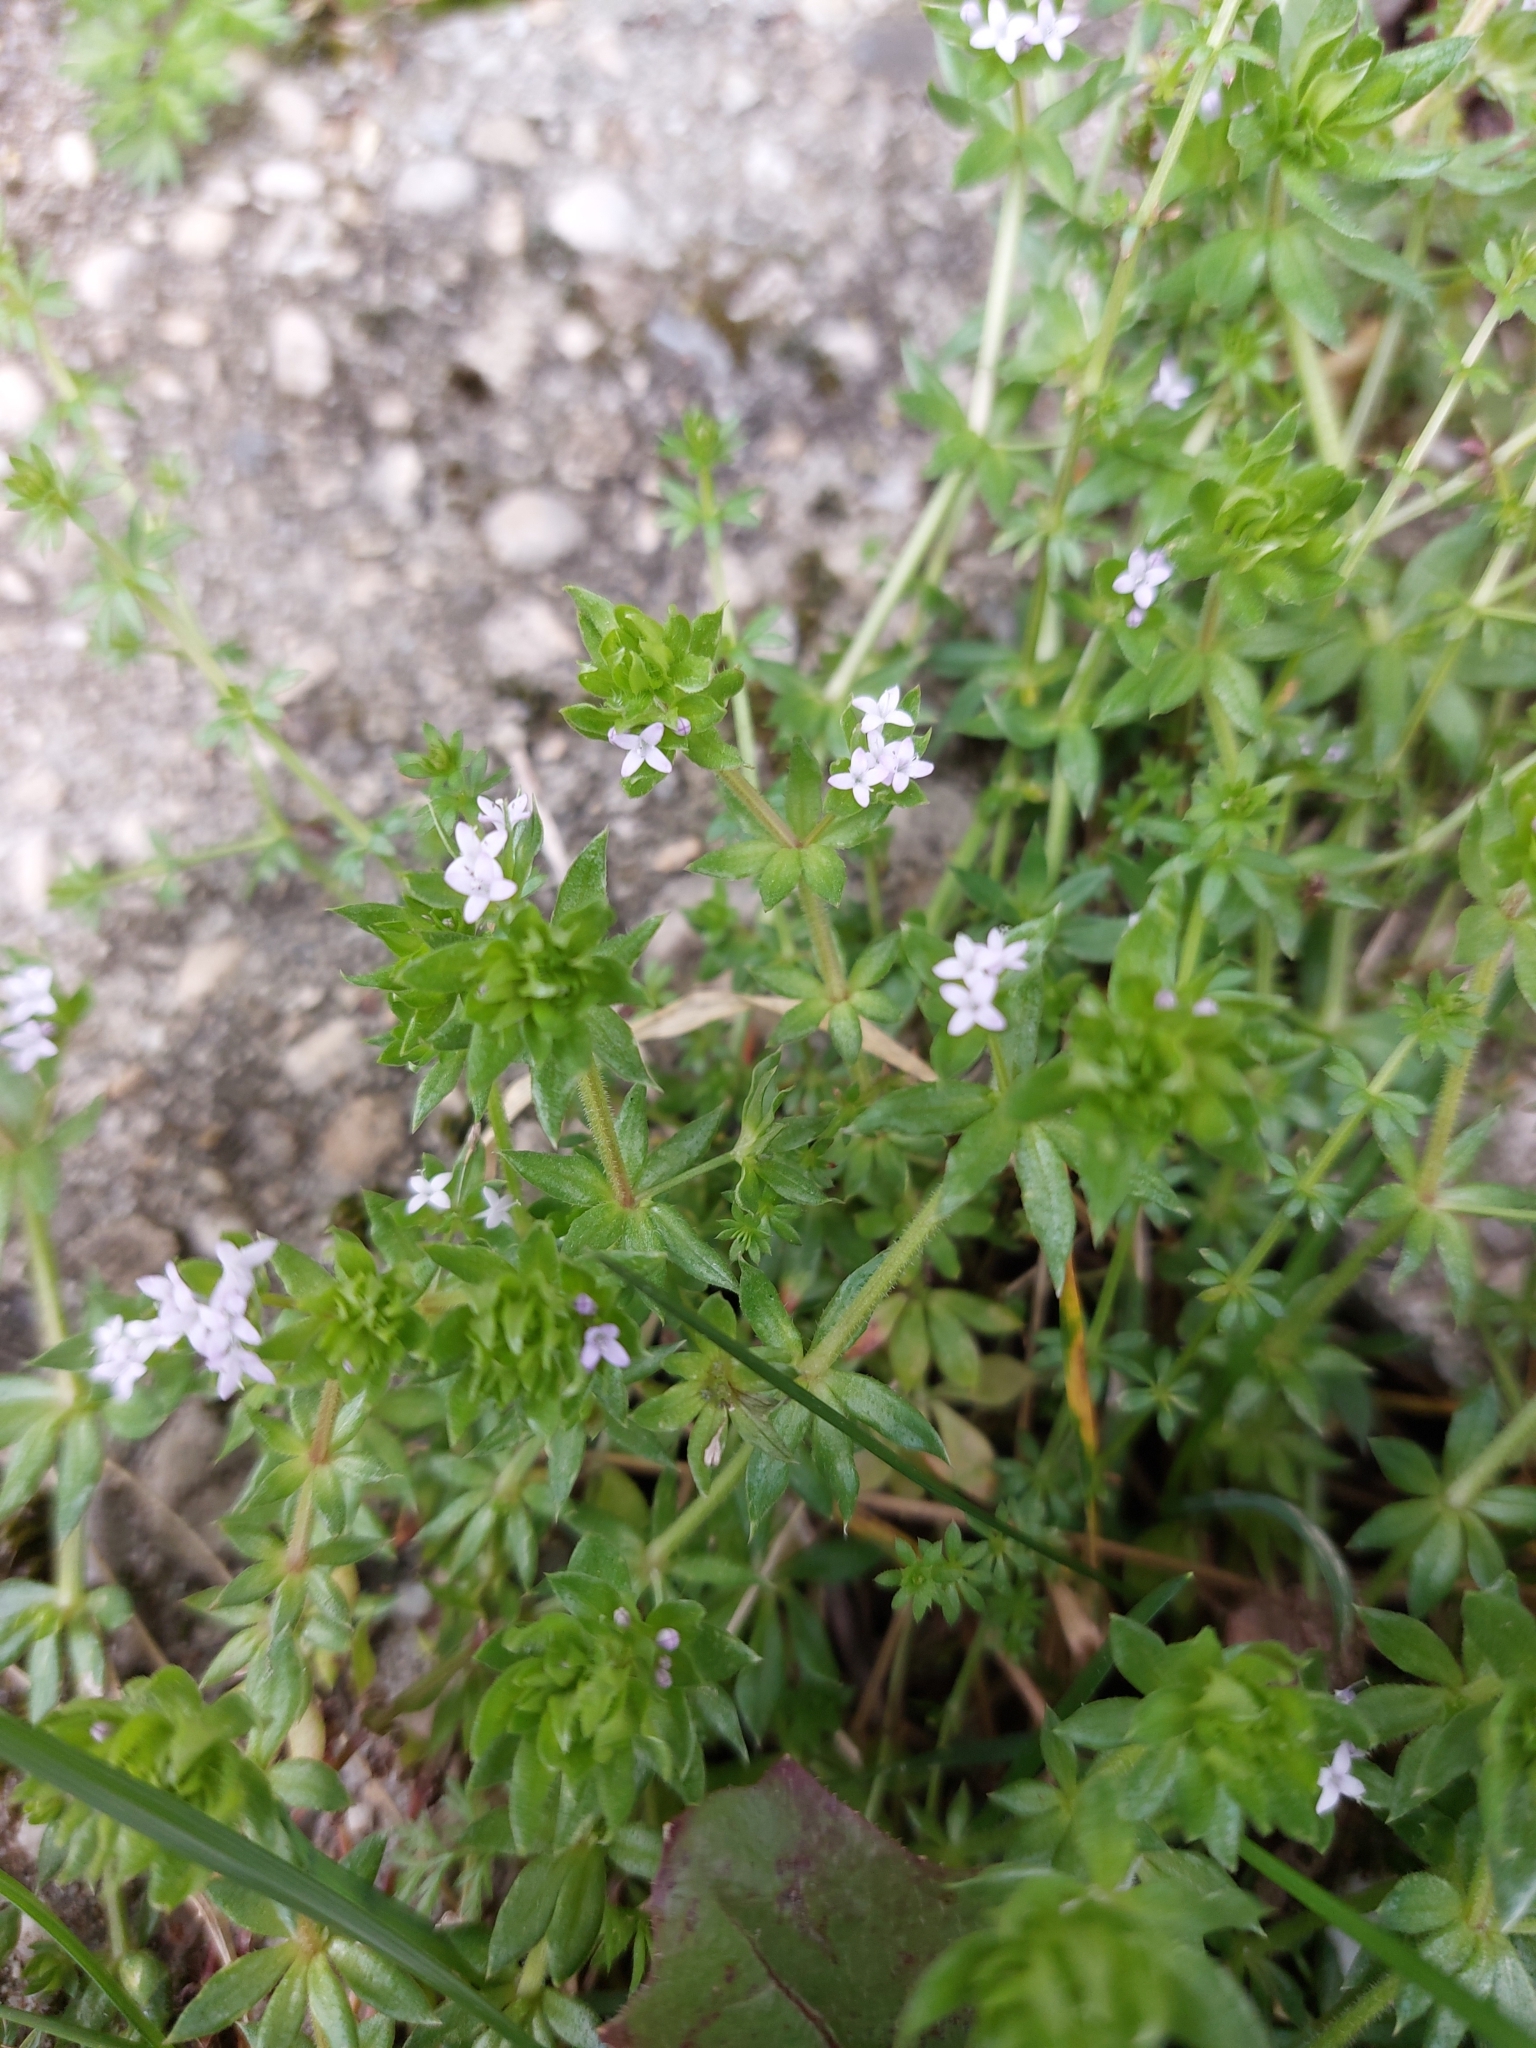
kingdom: Plantae
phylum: Tracheophyta
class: Magnoliopsida
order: Gentianales
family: Rubiaceae
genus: Sherardia
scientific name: Sherardia arvensis
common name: Field madder
